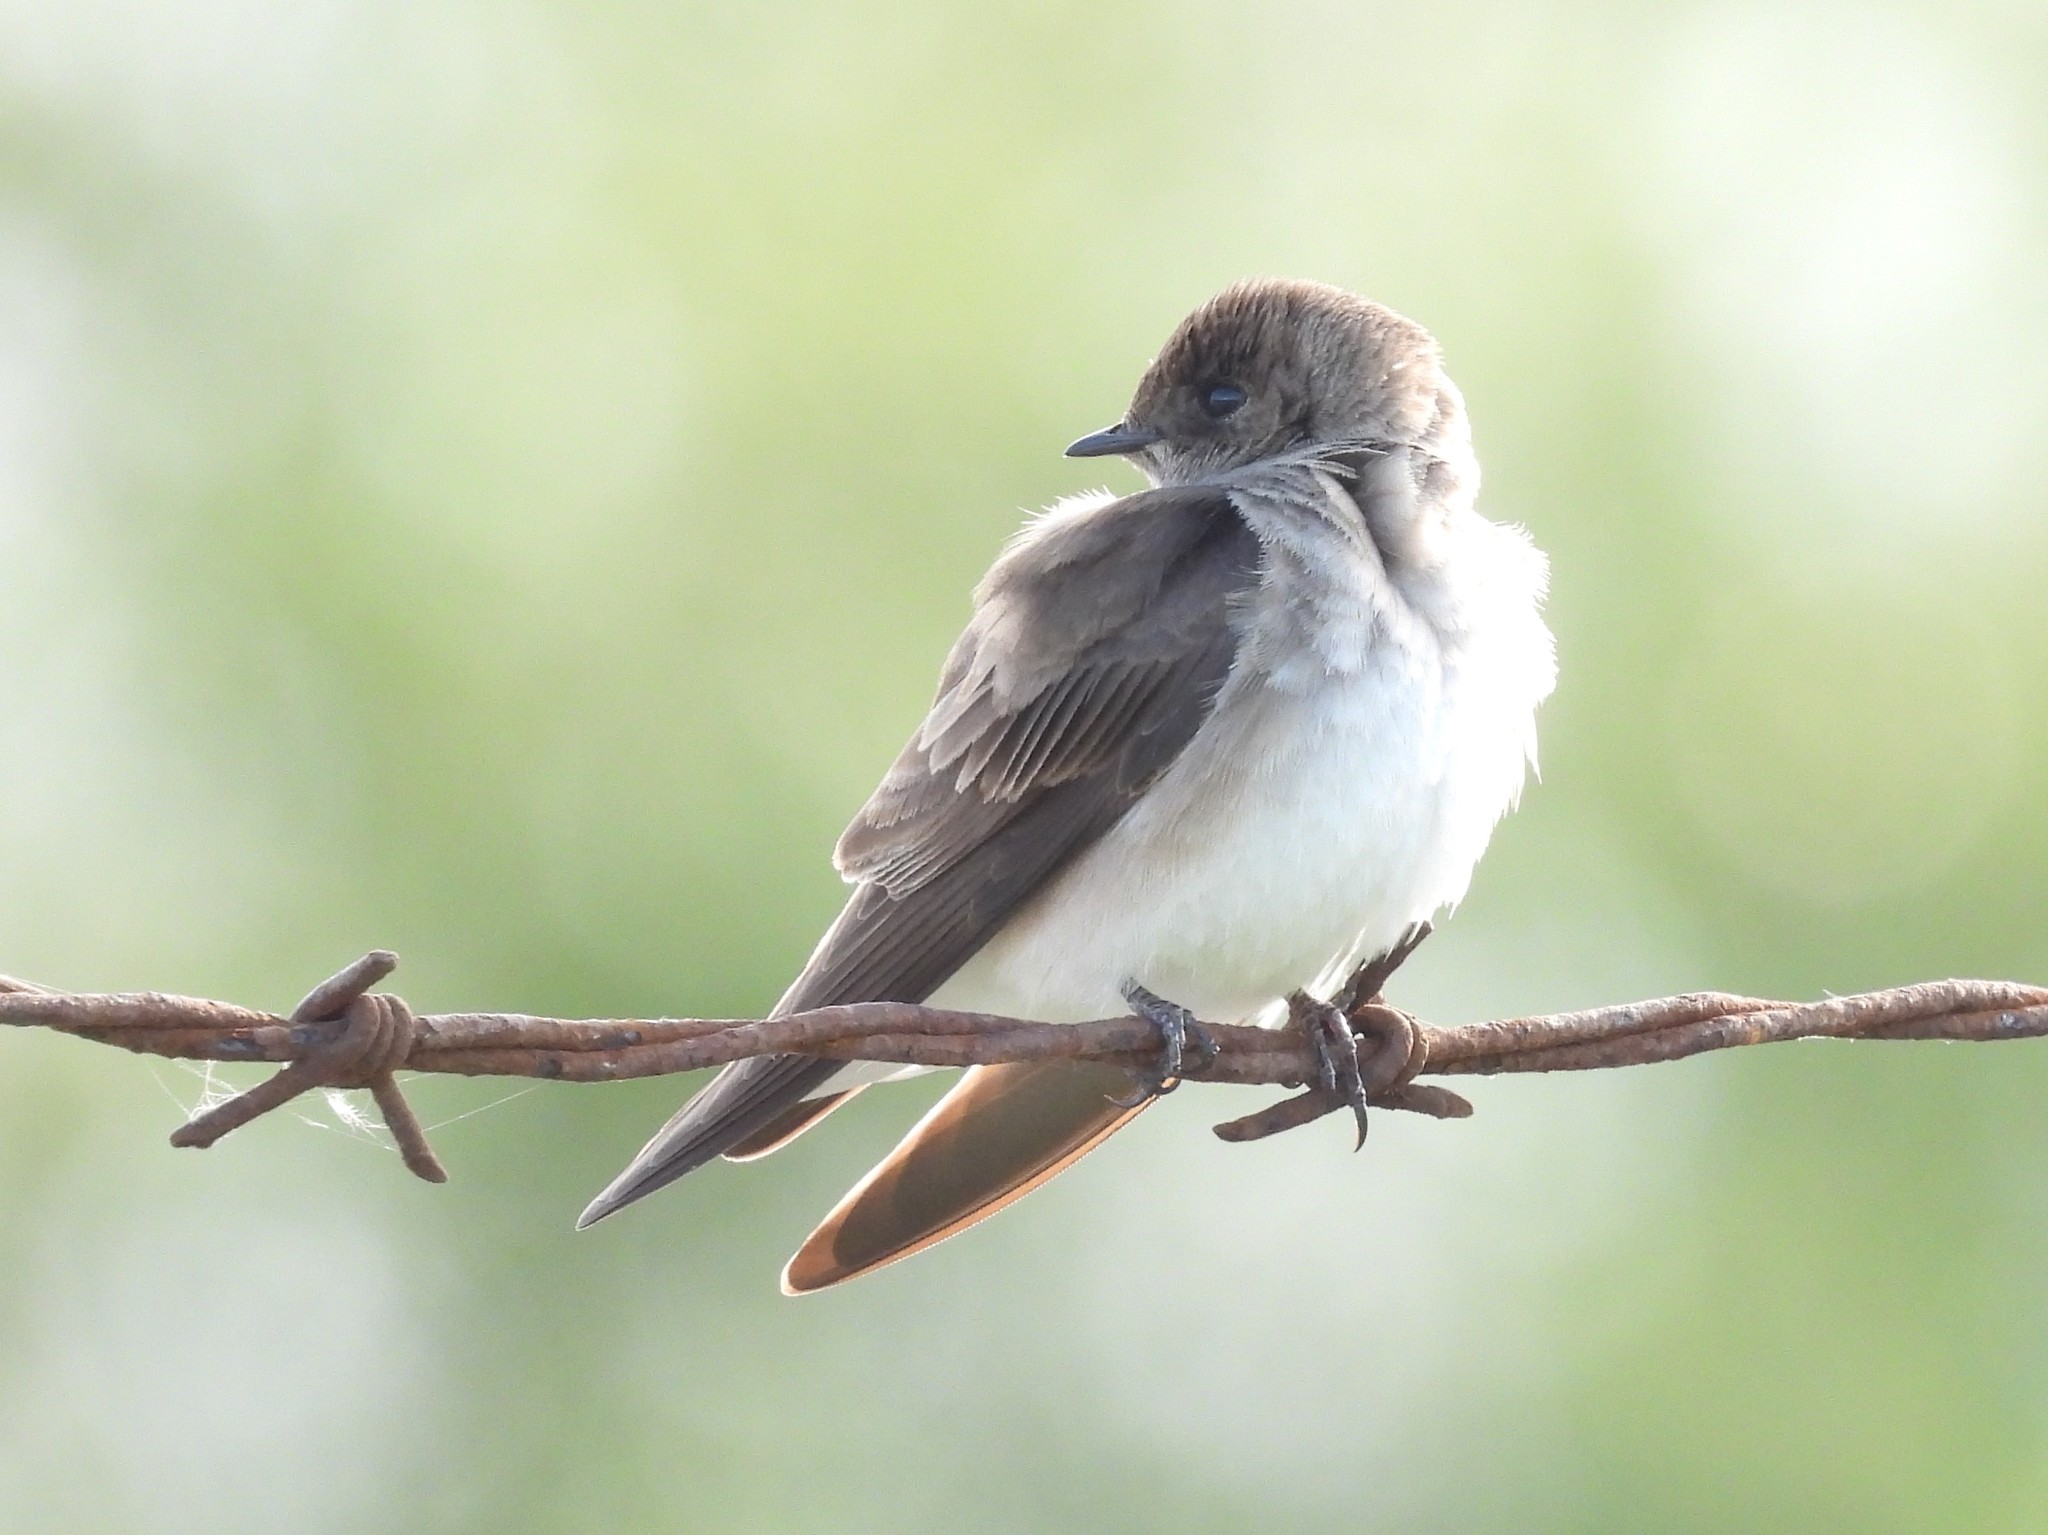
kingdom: Animalia
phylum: Chordata
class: Aves
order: Passeriformes
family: Hirundinidae
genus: Stelgidopteryx
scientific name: Stelgidopteryx serripennis
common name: Northern rough-winged swallow
